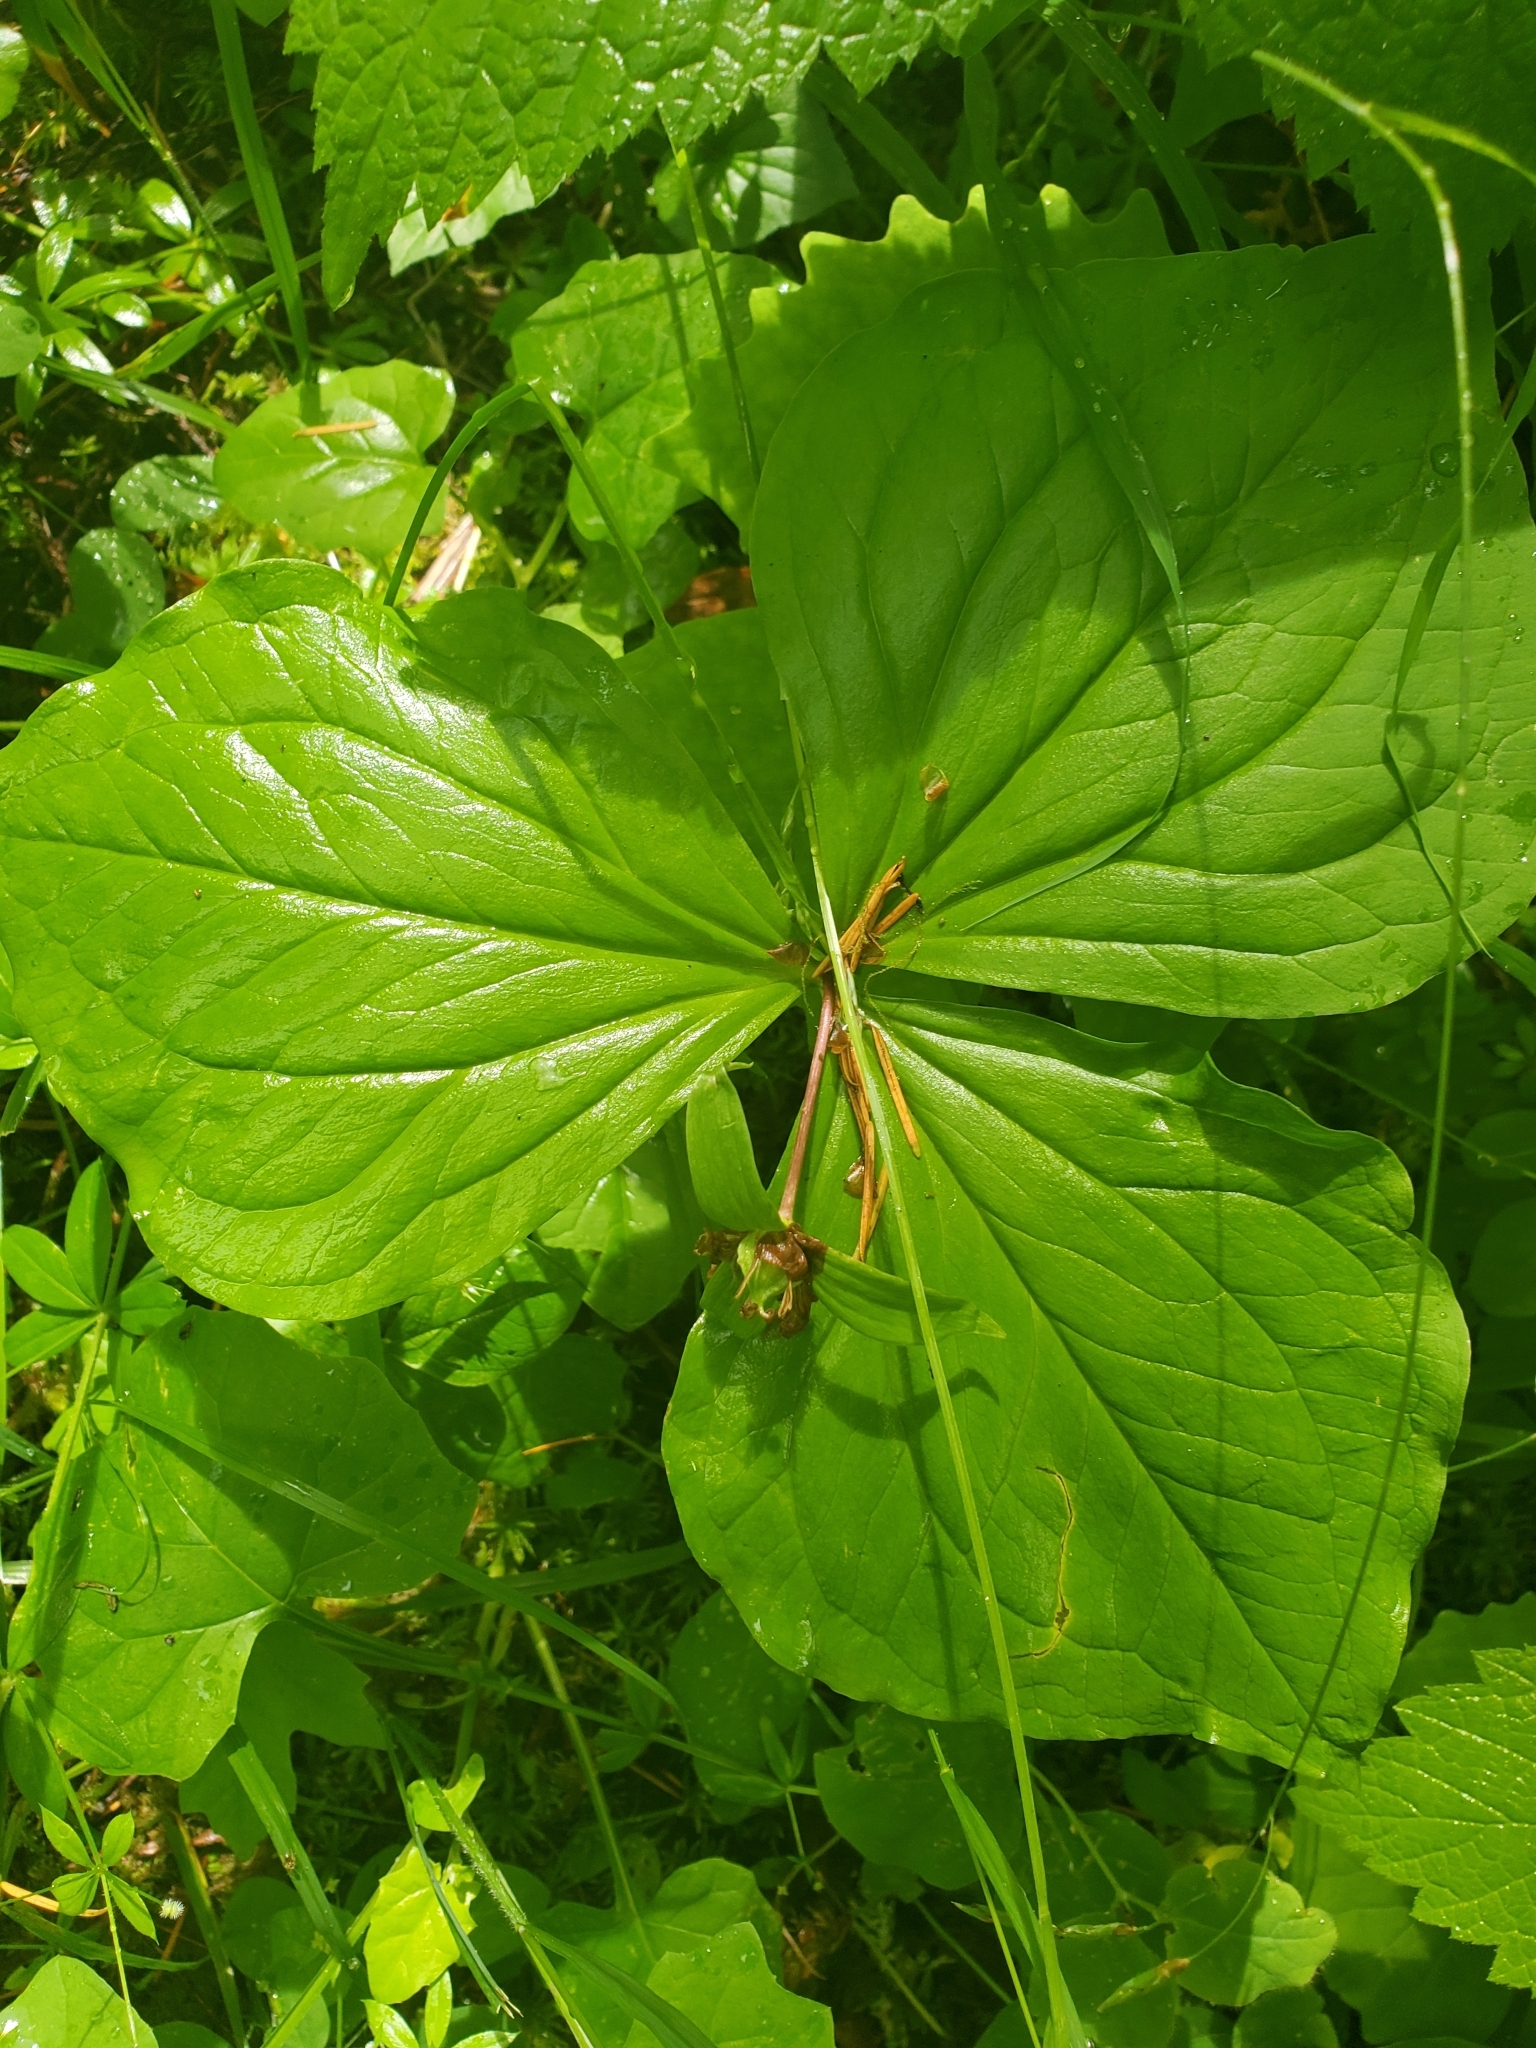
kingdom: Plantae
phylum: Tracheophyta
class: Liliopsida
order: Liliales
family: Melanthiaceae
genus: Trillium
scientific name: Trillium ovatum
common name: Pacific trillium
